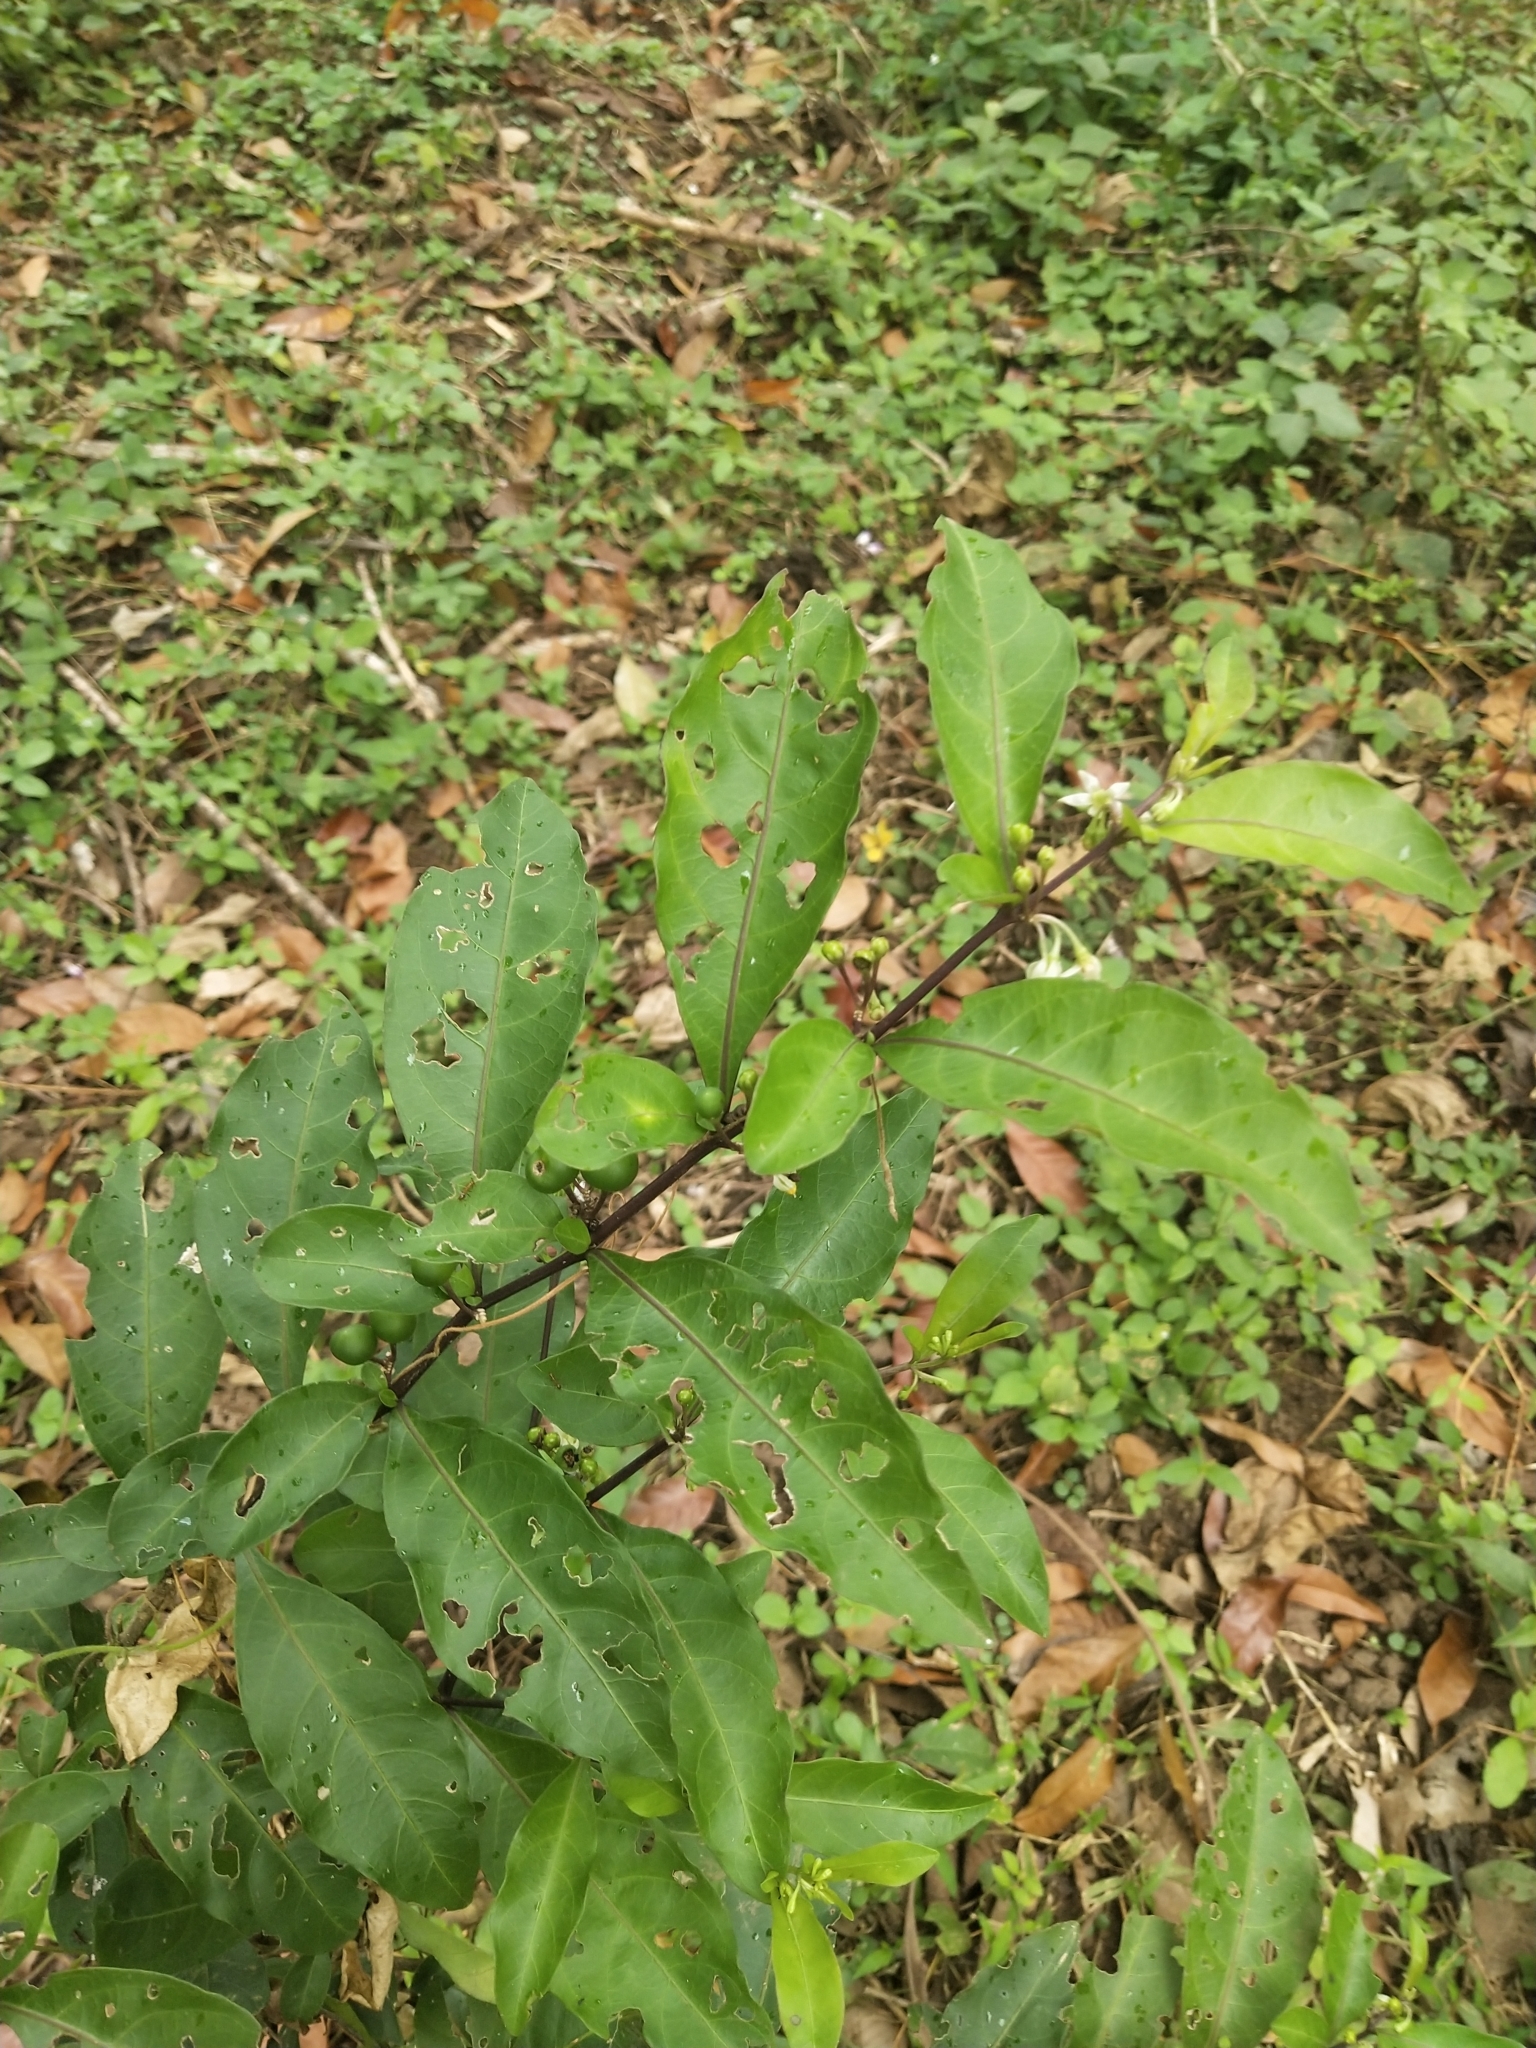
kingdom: Plantae
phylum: Tracheophyta
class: Magnoliopsida
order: Solanales
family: Solanaceae
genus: Solanum
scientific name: Solanum diphyllum
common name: Twoleaf nightshade
